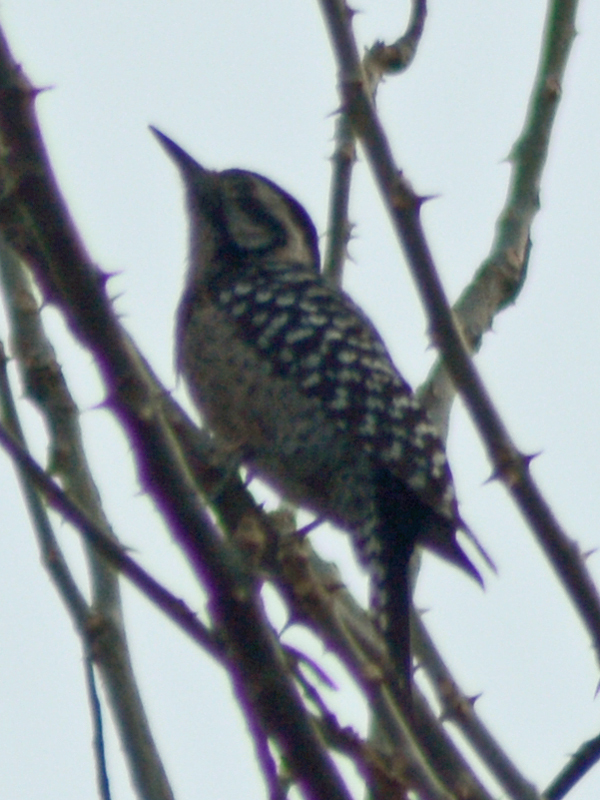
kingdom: Animalia
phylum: Chordata
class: Aves
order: Piciformes
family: Picidae
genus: Dryobates
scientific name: Dryobates scalaris
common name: Ladder-backed woodpecker
